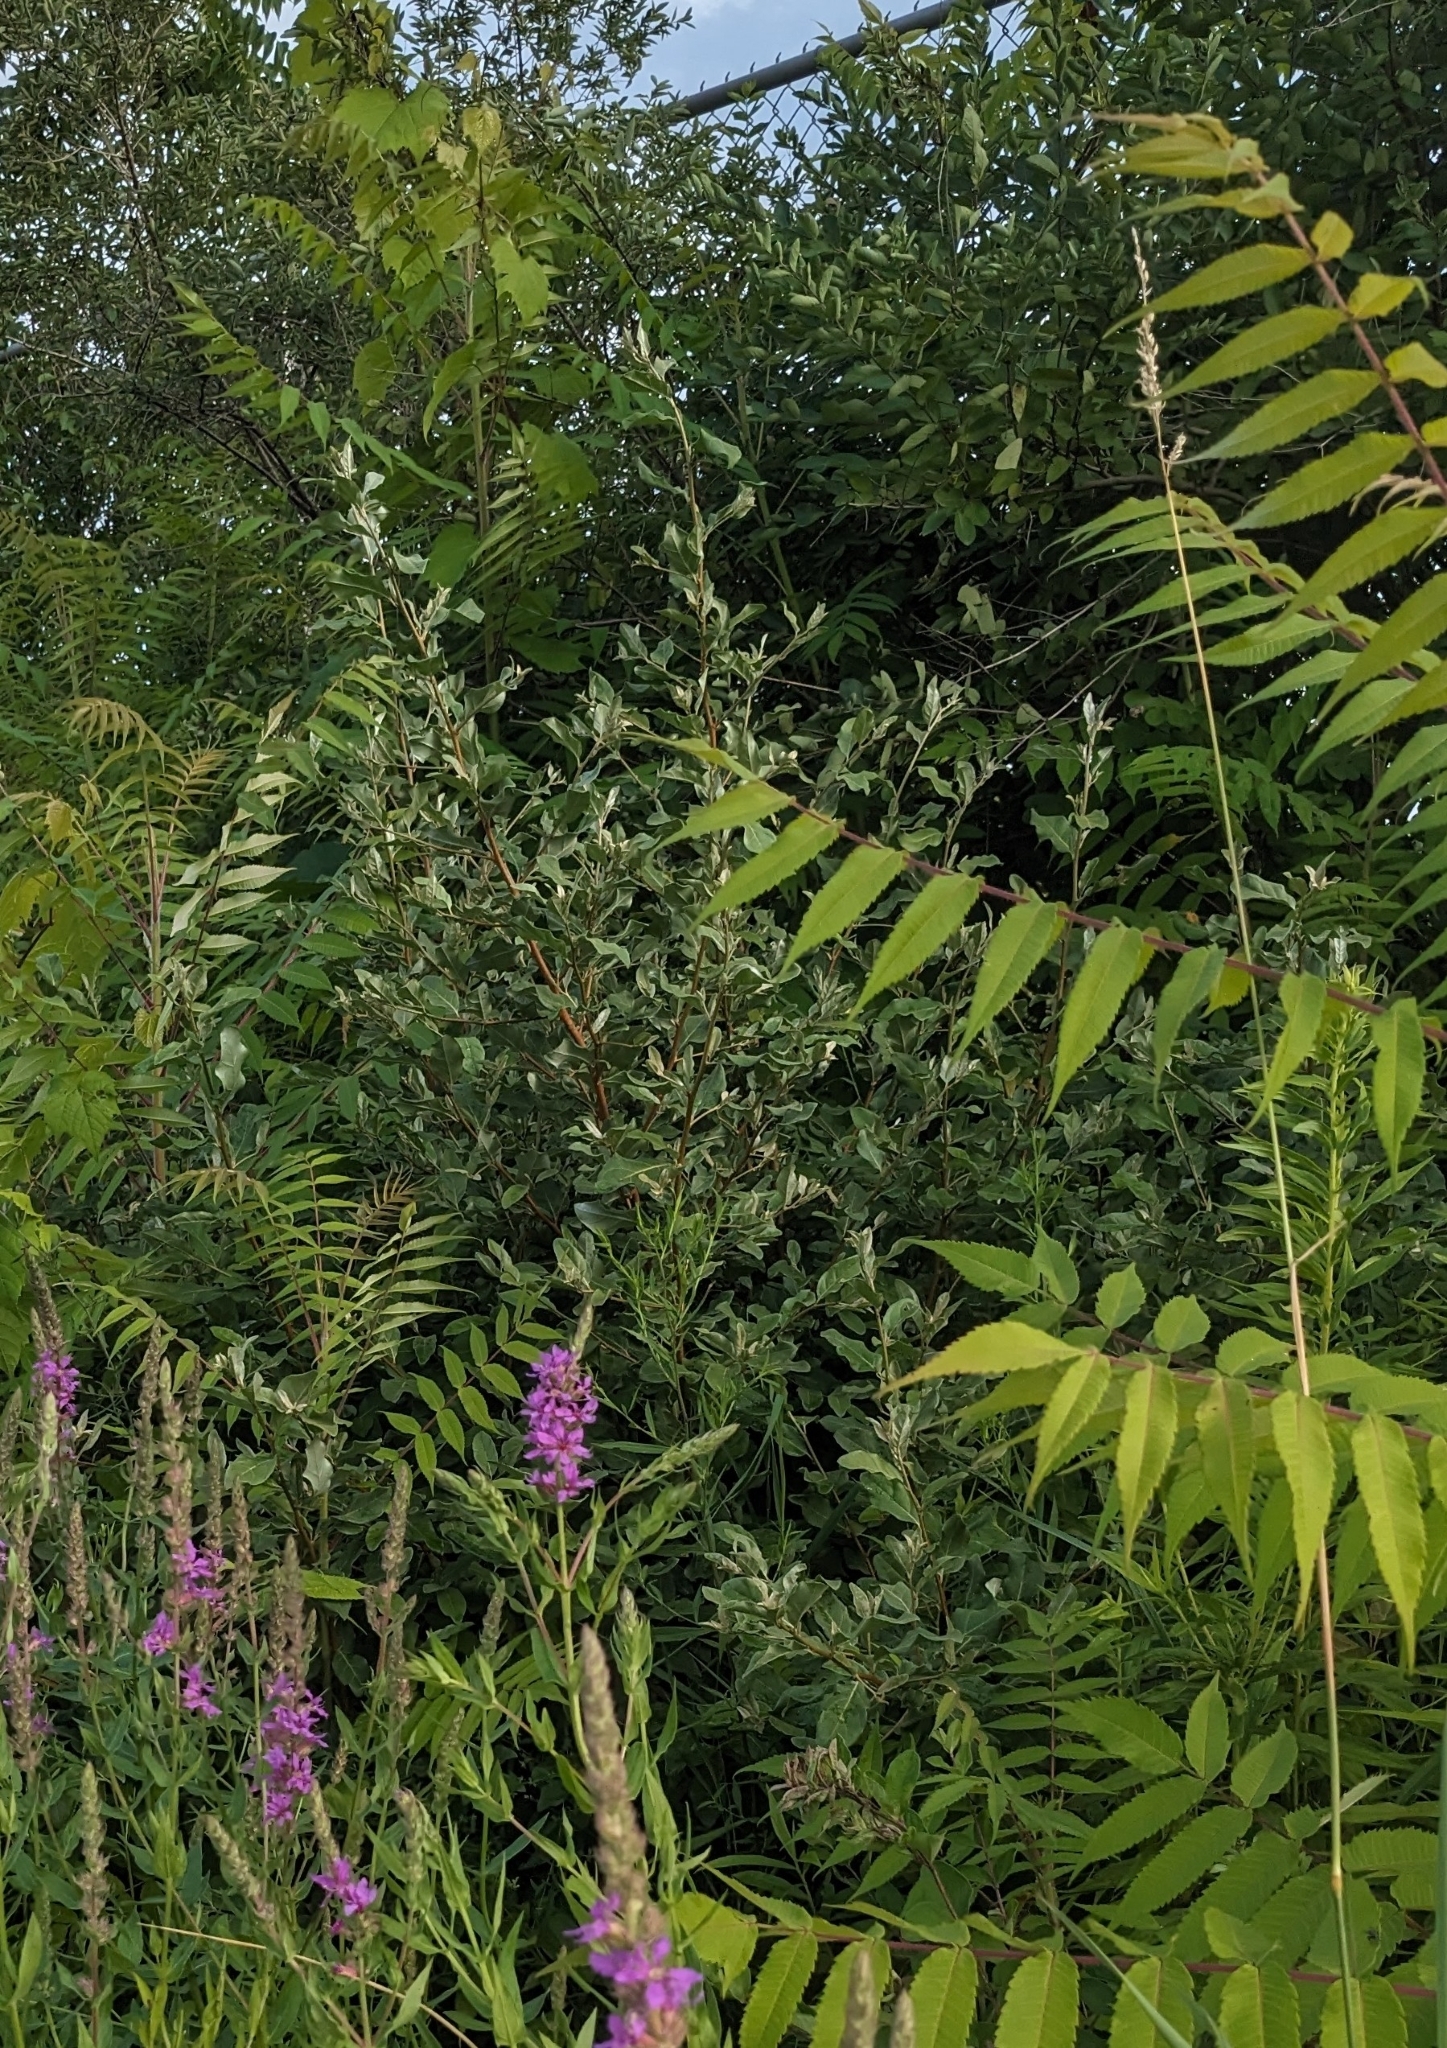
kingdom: Plantae
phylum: Tracheophyta
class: Magnoliopsida
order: Rosales
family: Elaeagnaceae
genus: Elaeagnus
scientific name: Elaeagnus umbellata
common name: Autumn olive
